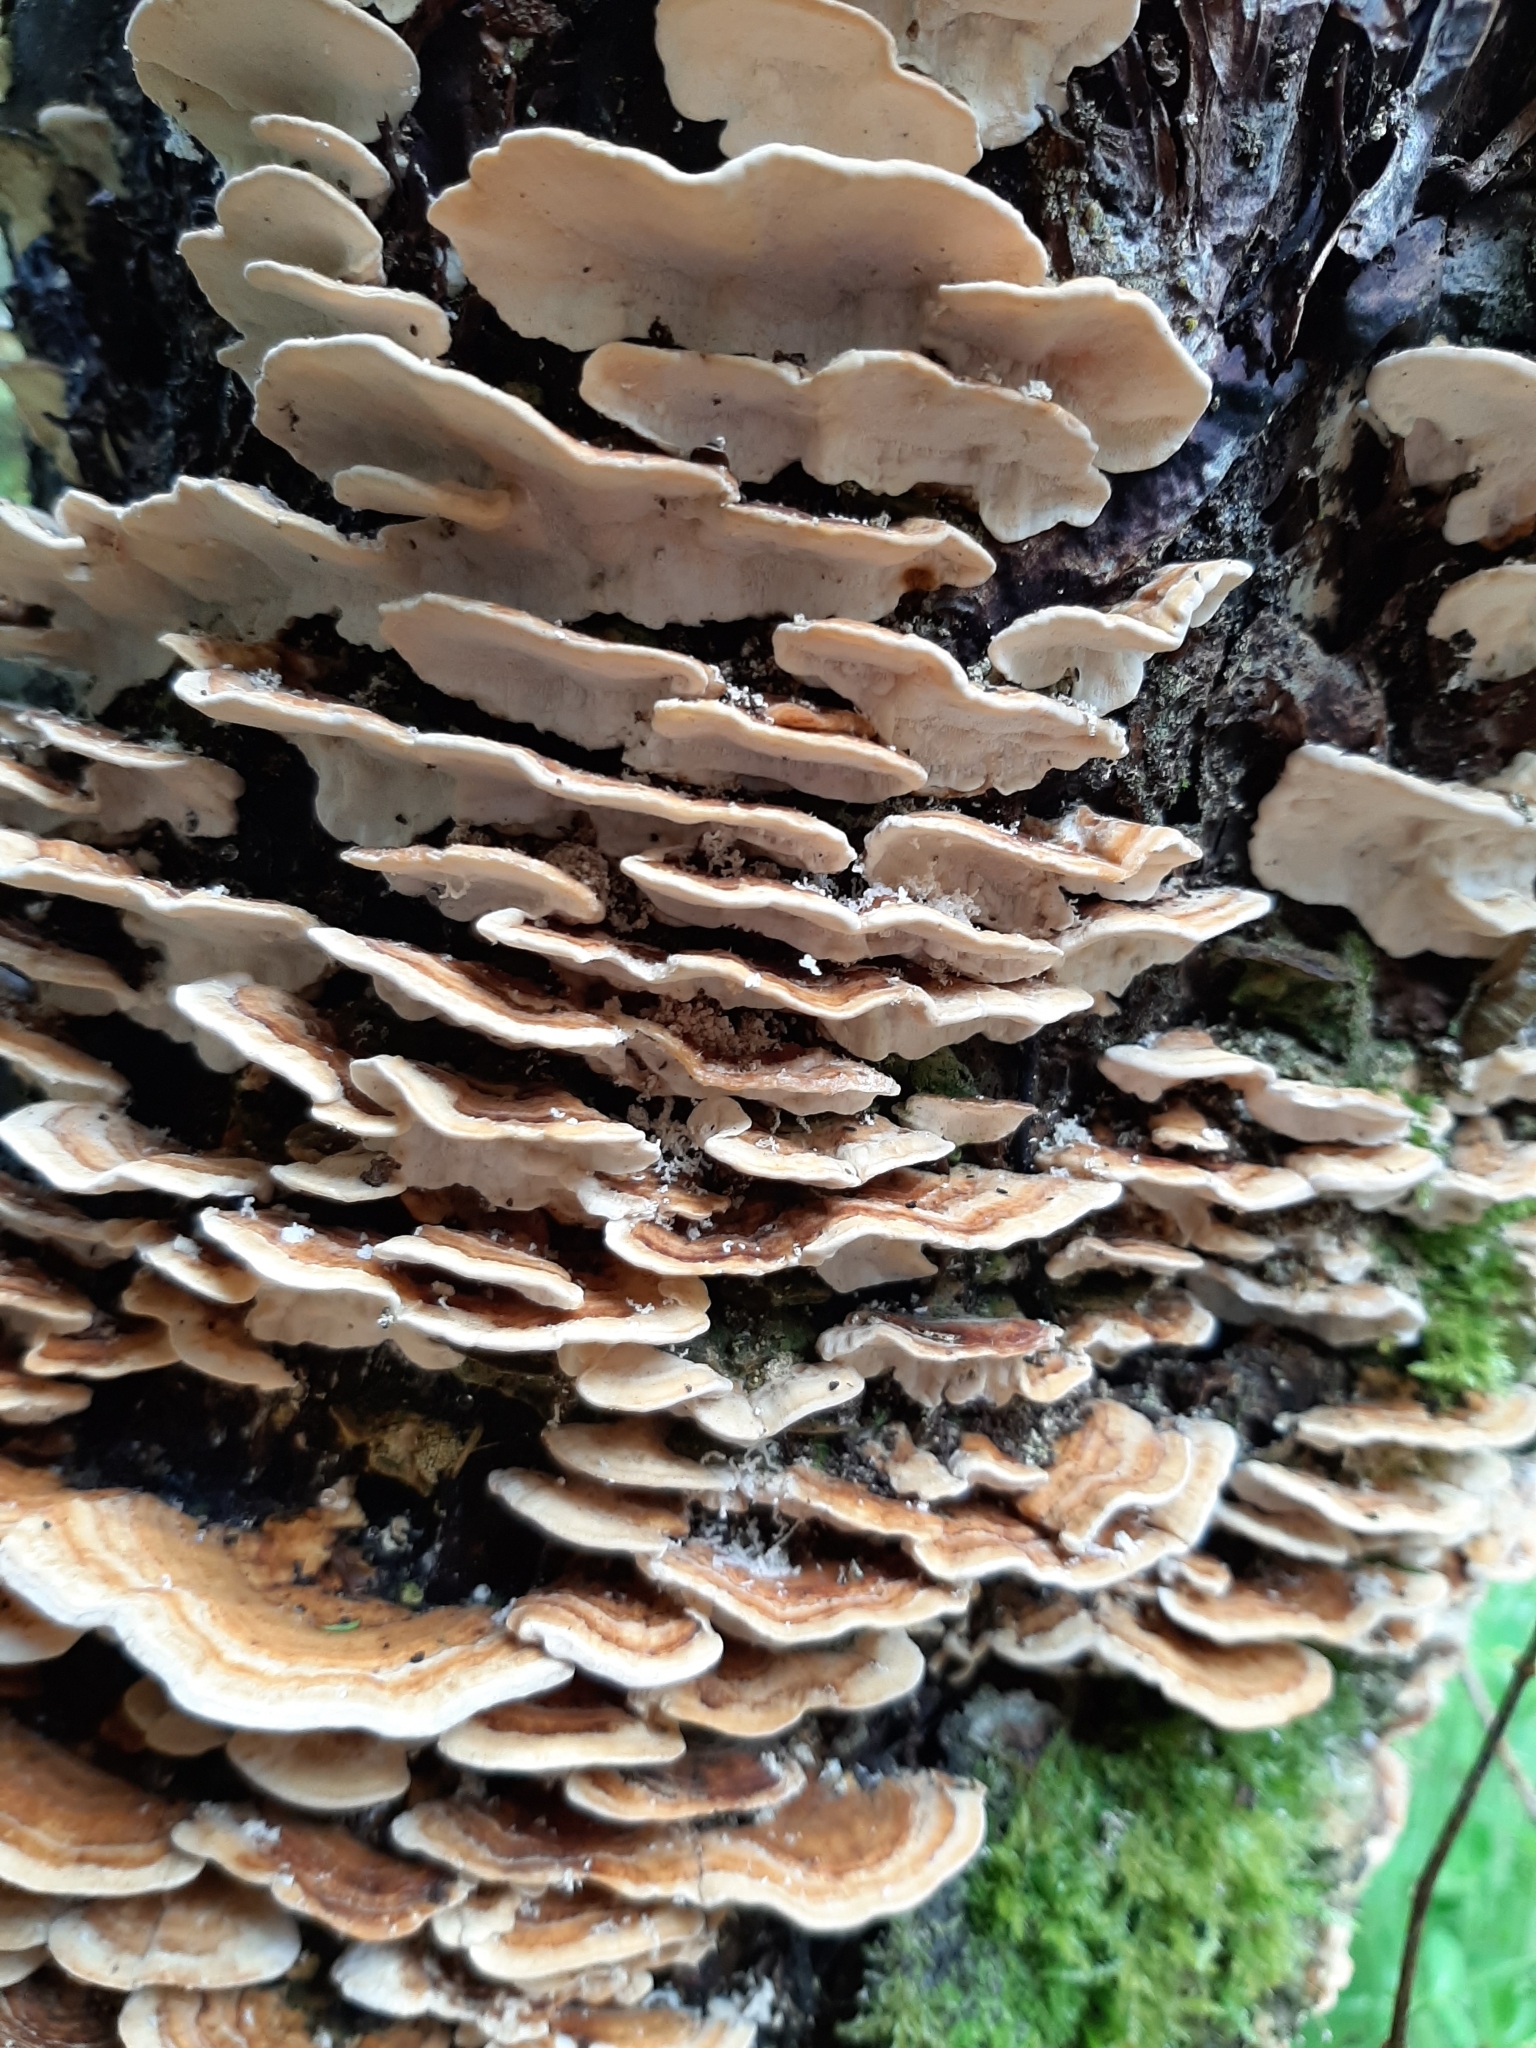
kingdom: Fungi
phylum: Basidiomycota
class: Agaricomycetes
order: Polyporales
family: Polyporaceae
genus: Trametes
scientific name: Trametes versicolor
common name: Turkeytail
